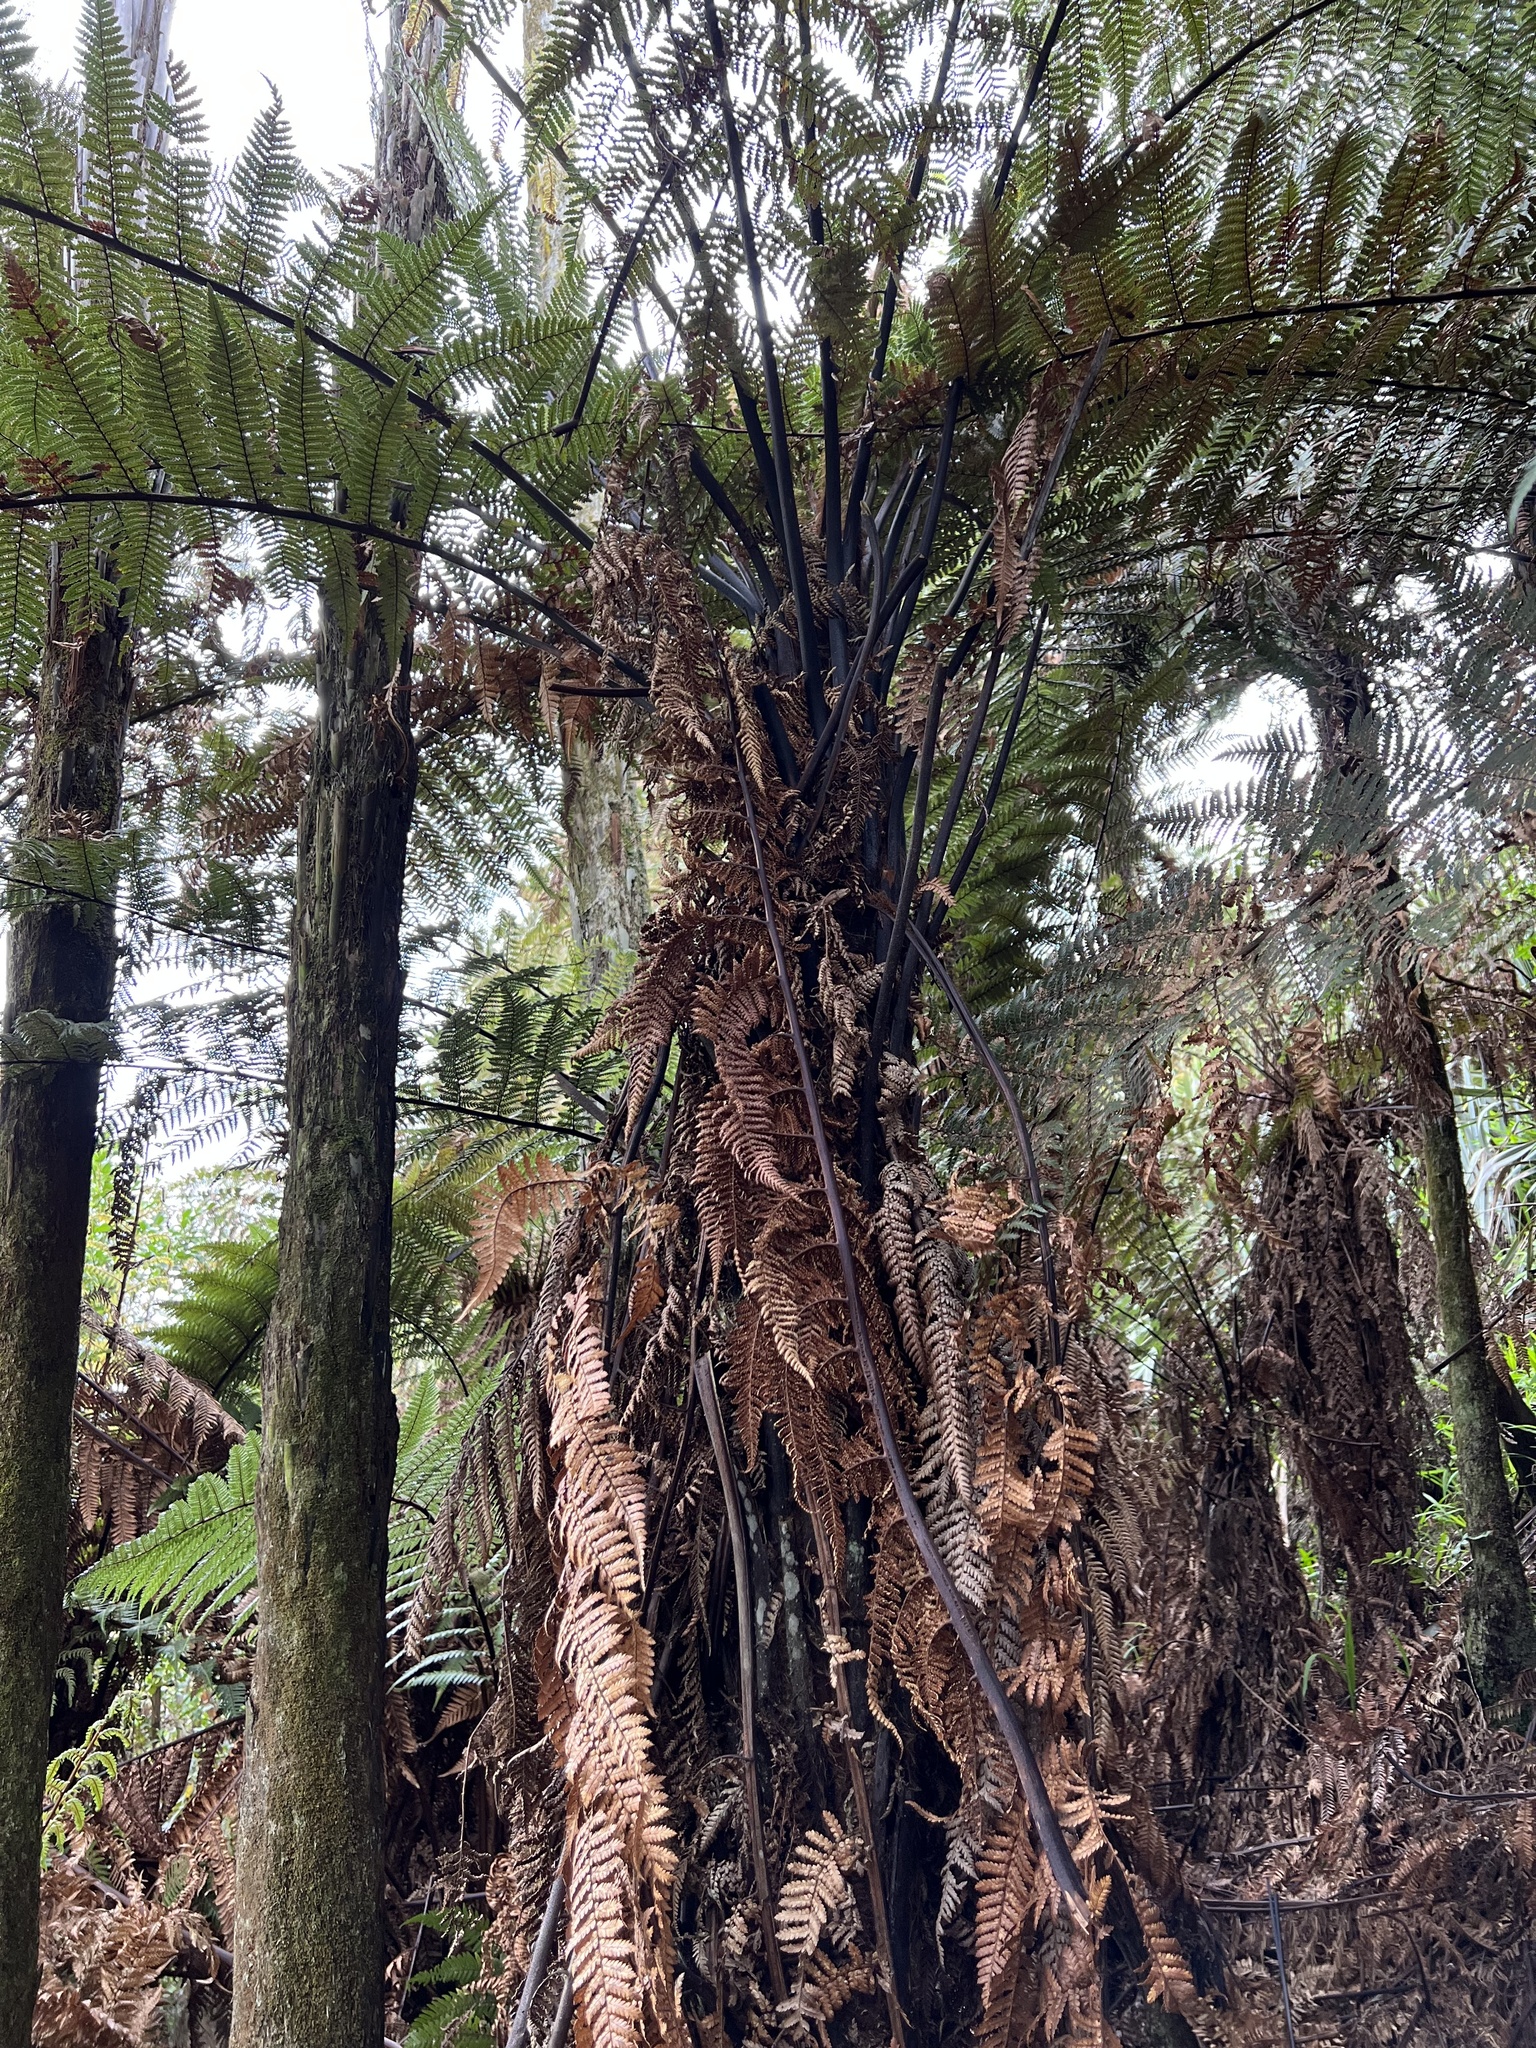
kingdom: Plantae
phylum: Tracheophyta
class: Polypodiopsida
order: Cyatheales
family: Dicksoniaceae
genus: Dicksonia
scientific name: Dicksonia squarrosa
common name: Hard treefern
